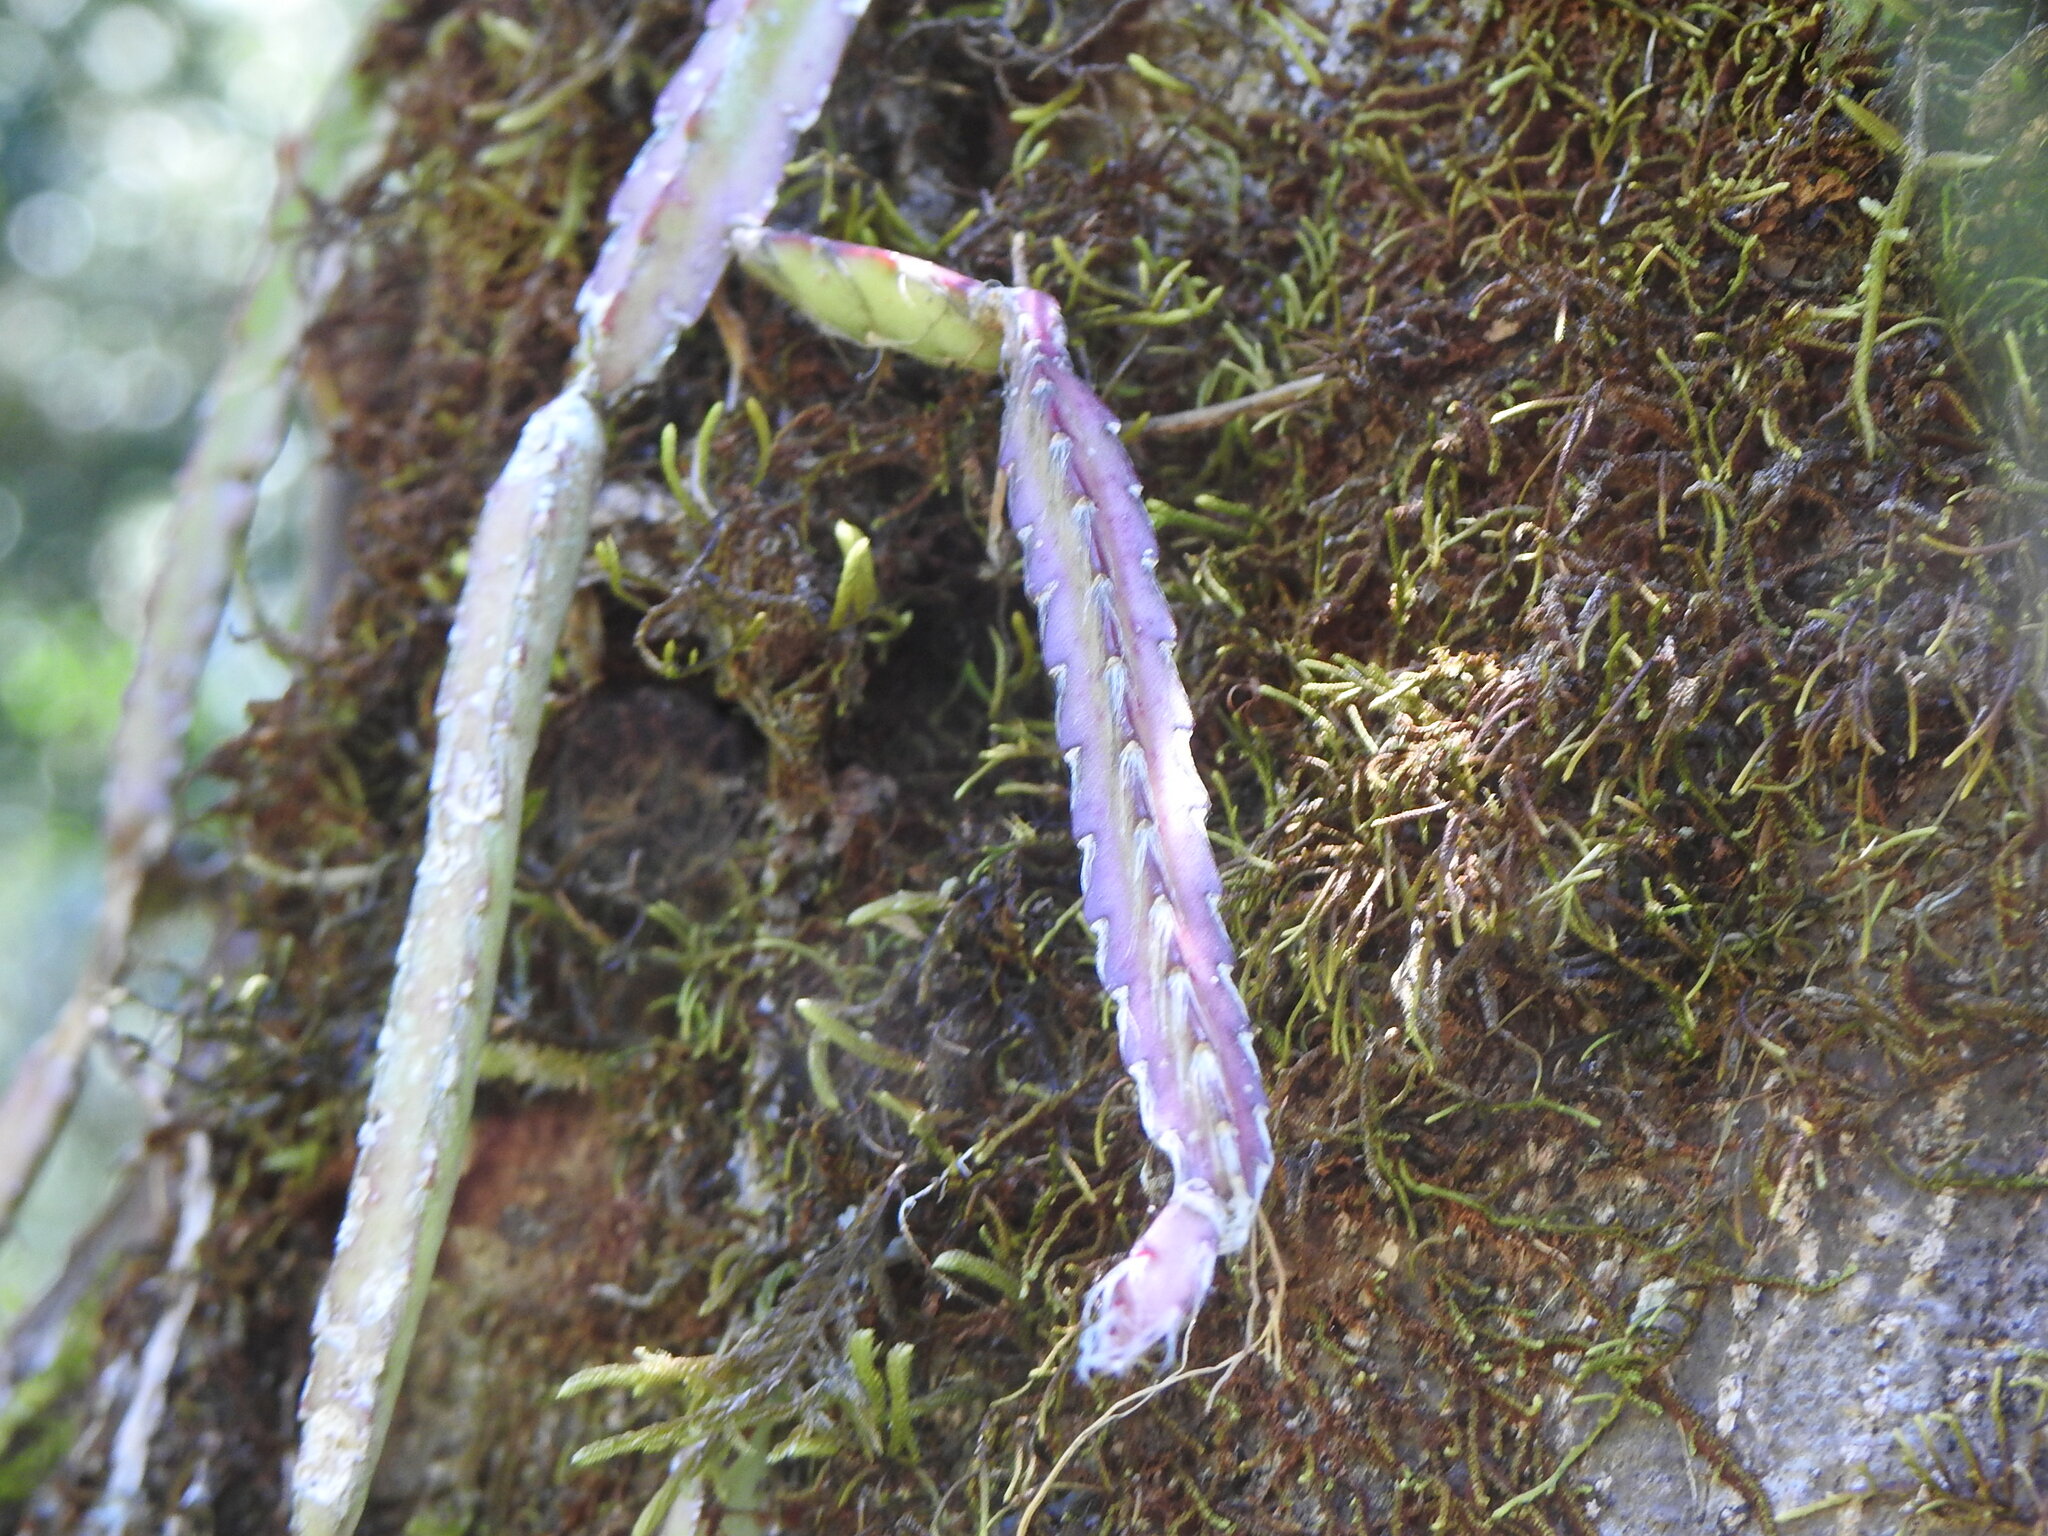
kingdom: Plantae
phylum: Tracheophyta
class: Magnoliopsida
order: Caryophyllales
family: Cactaceae
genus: Lepismium
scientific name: Lepismium cruciforme
